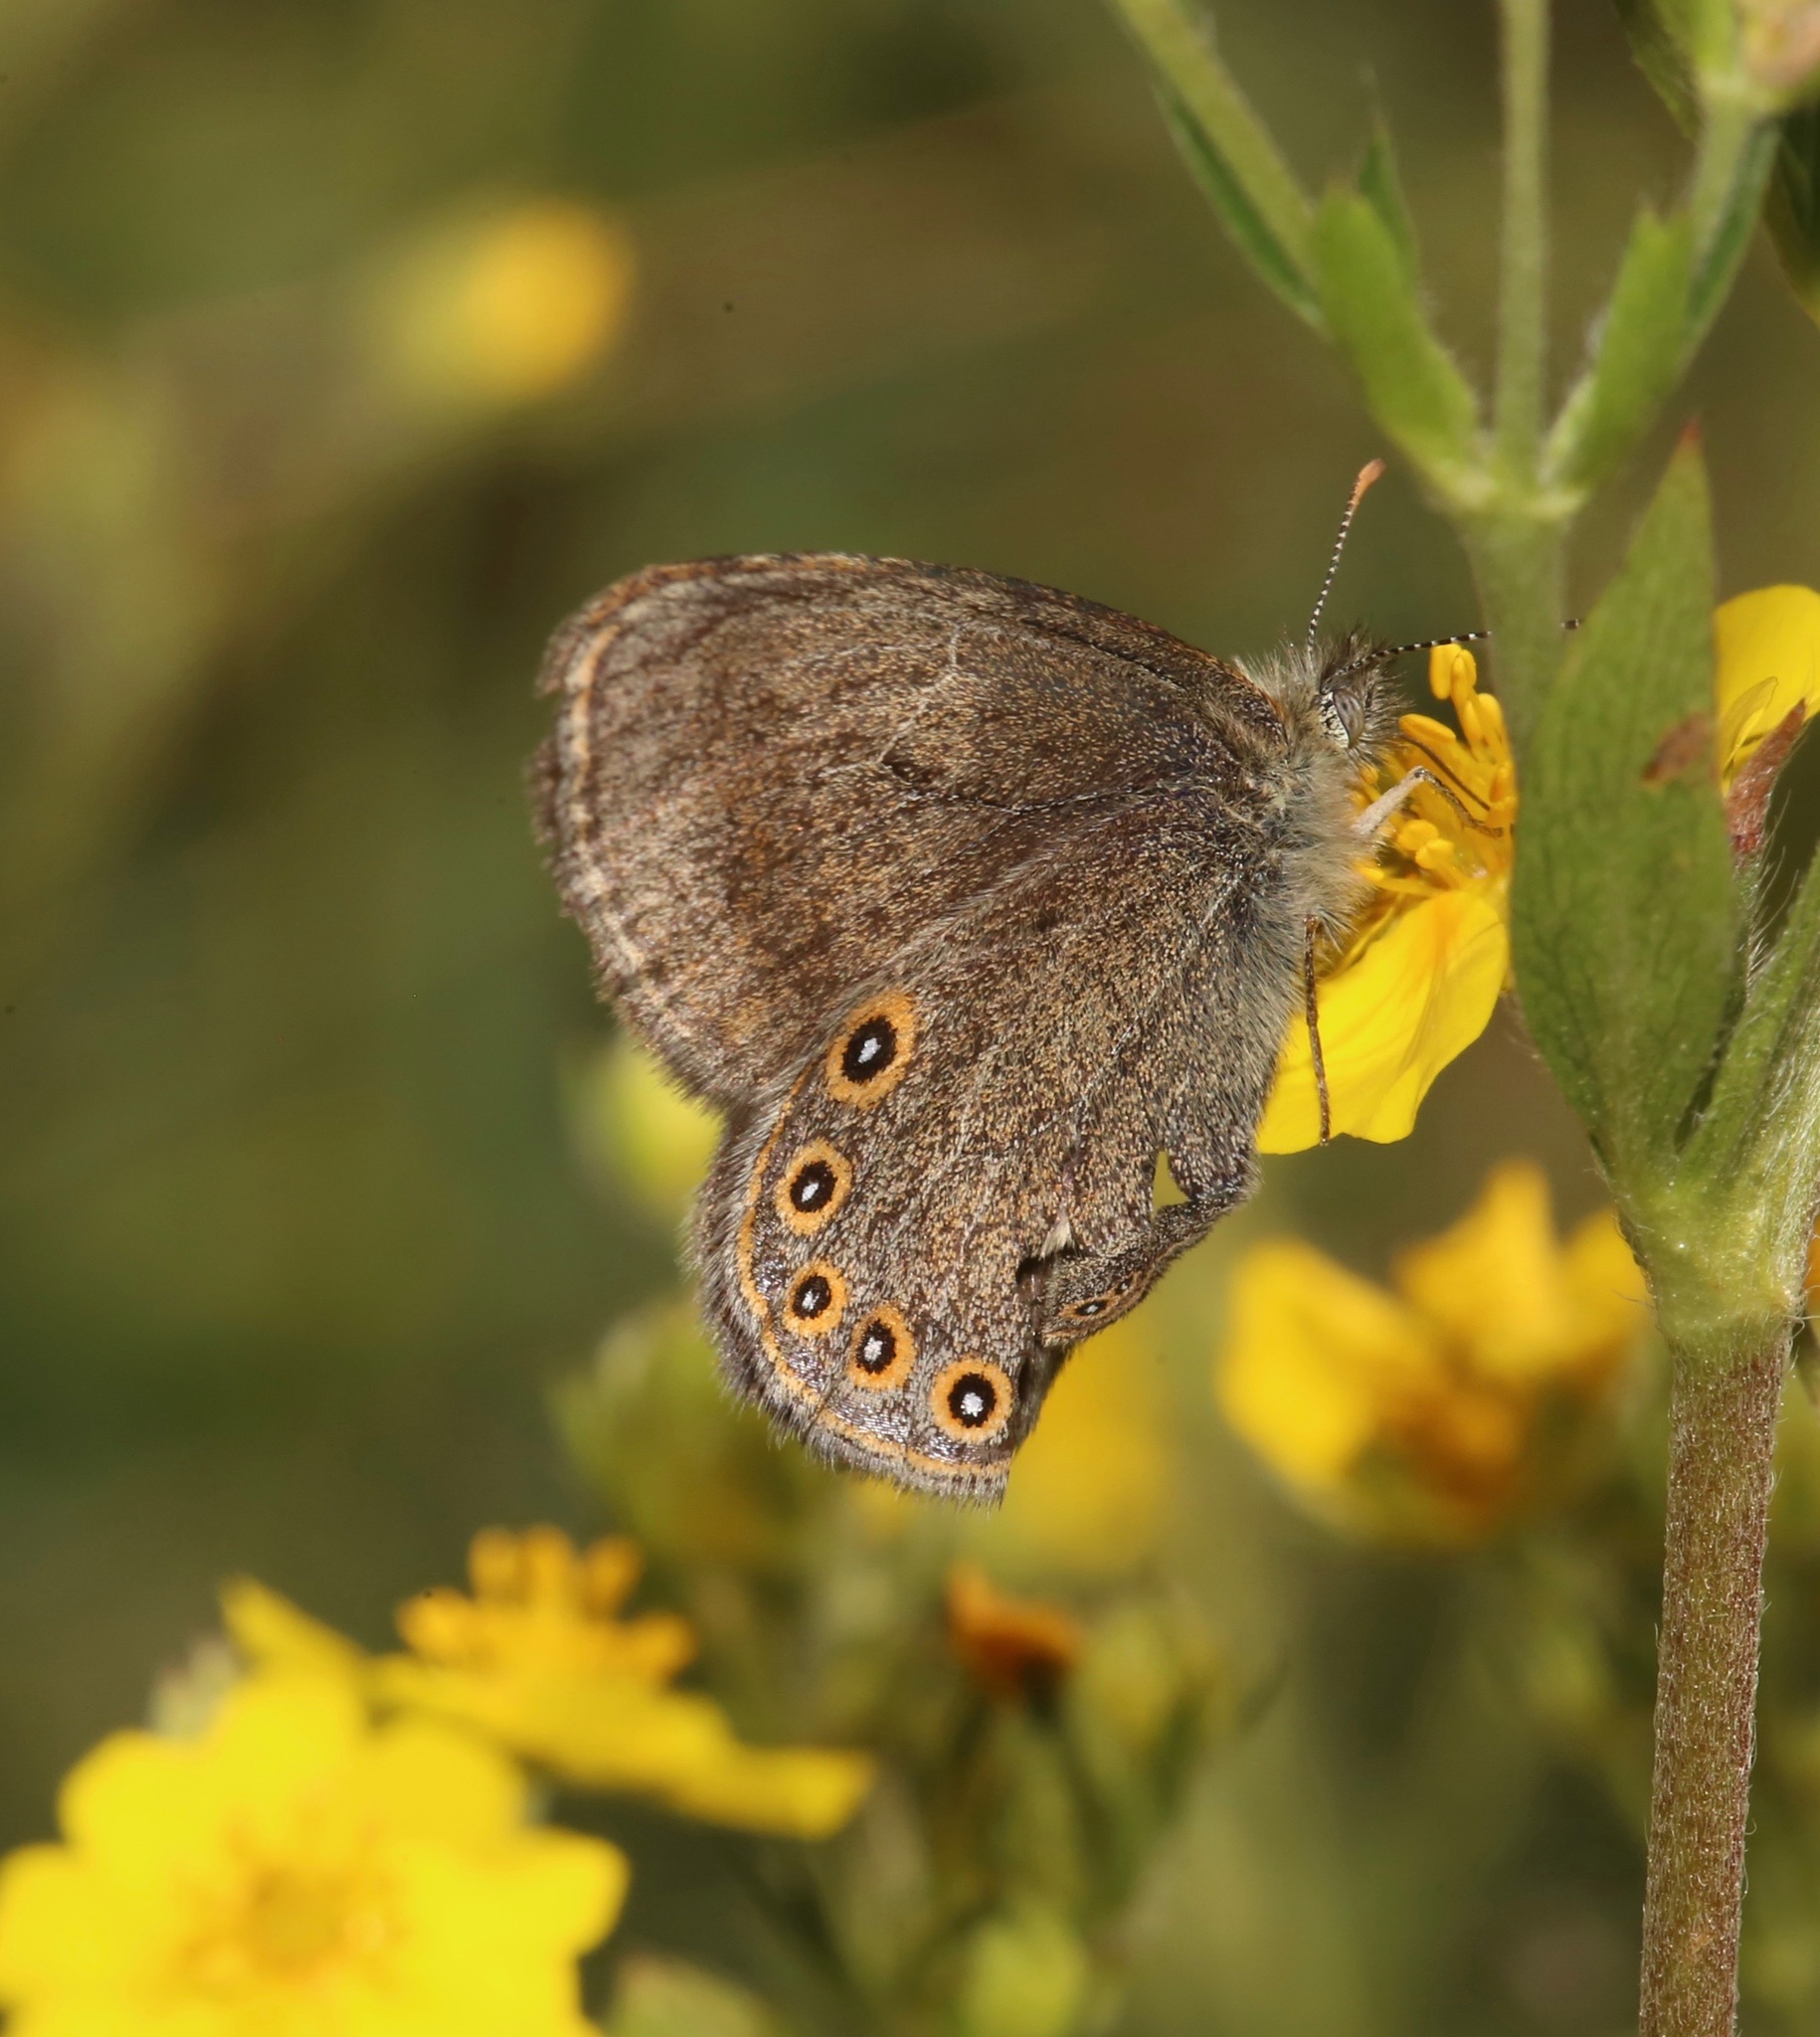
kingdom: Animalia
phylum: Arthropoda
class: Insecta
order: Lepidoptera
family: Nymphalidae
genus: Coenonympha
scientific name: Coenonympha haydeni
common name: Hayden's ringlet
